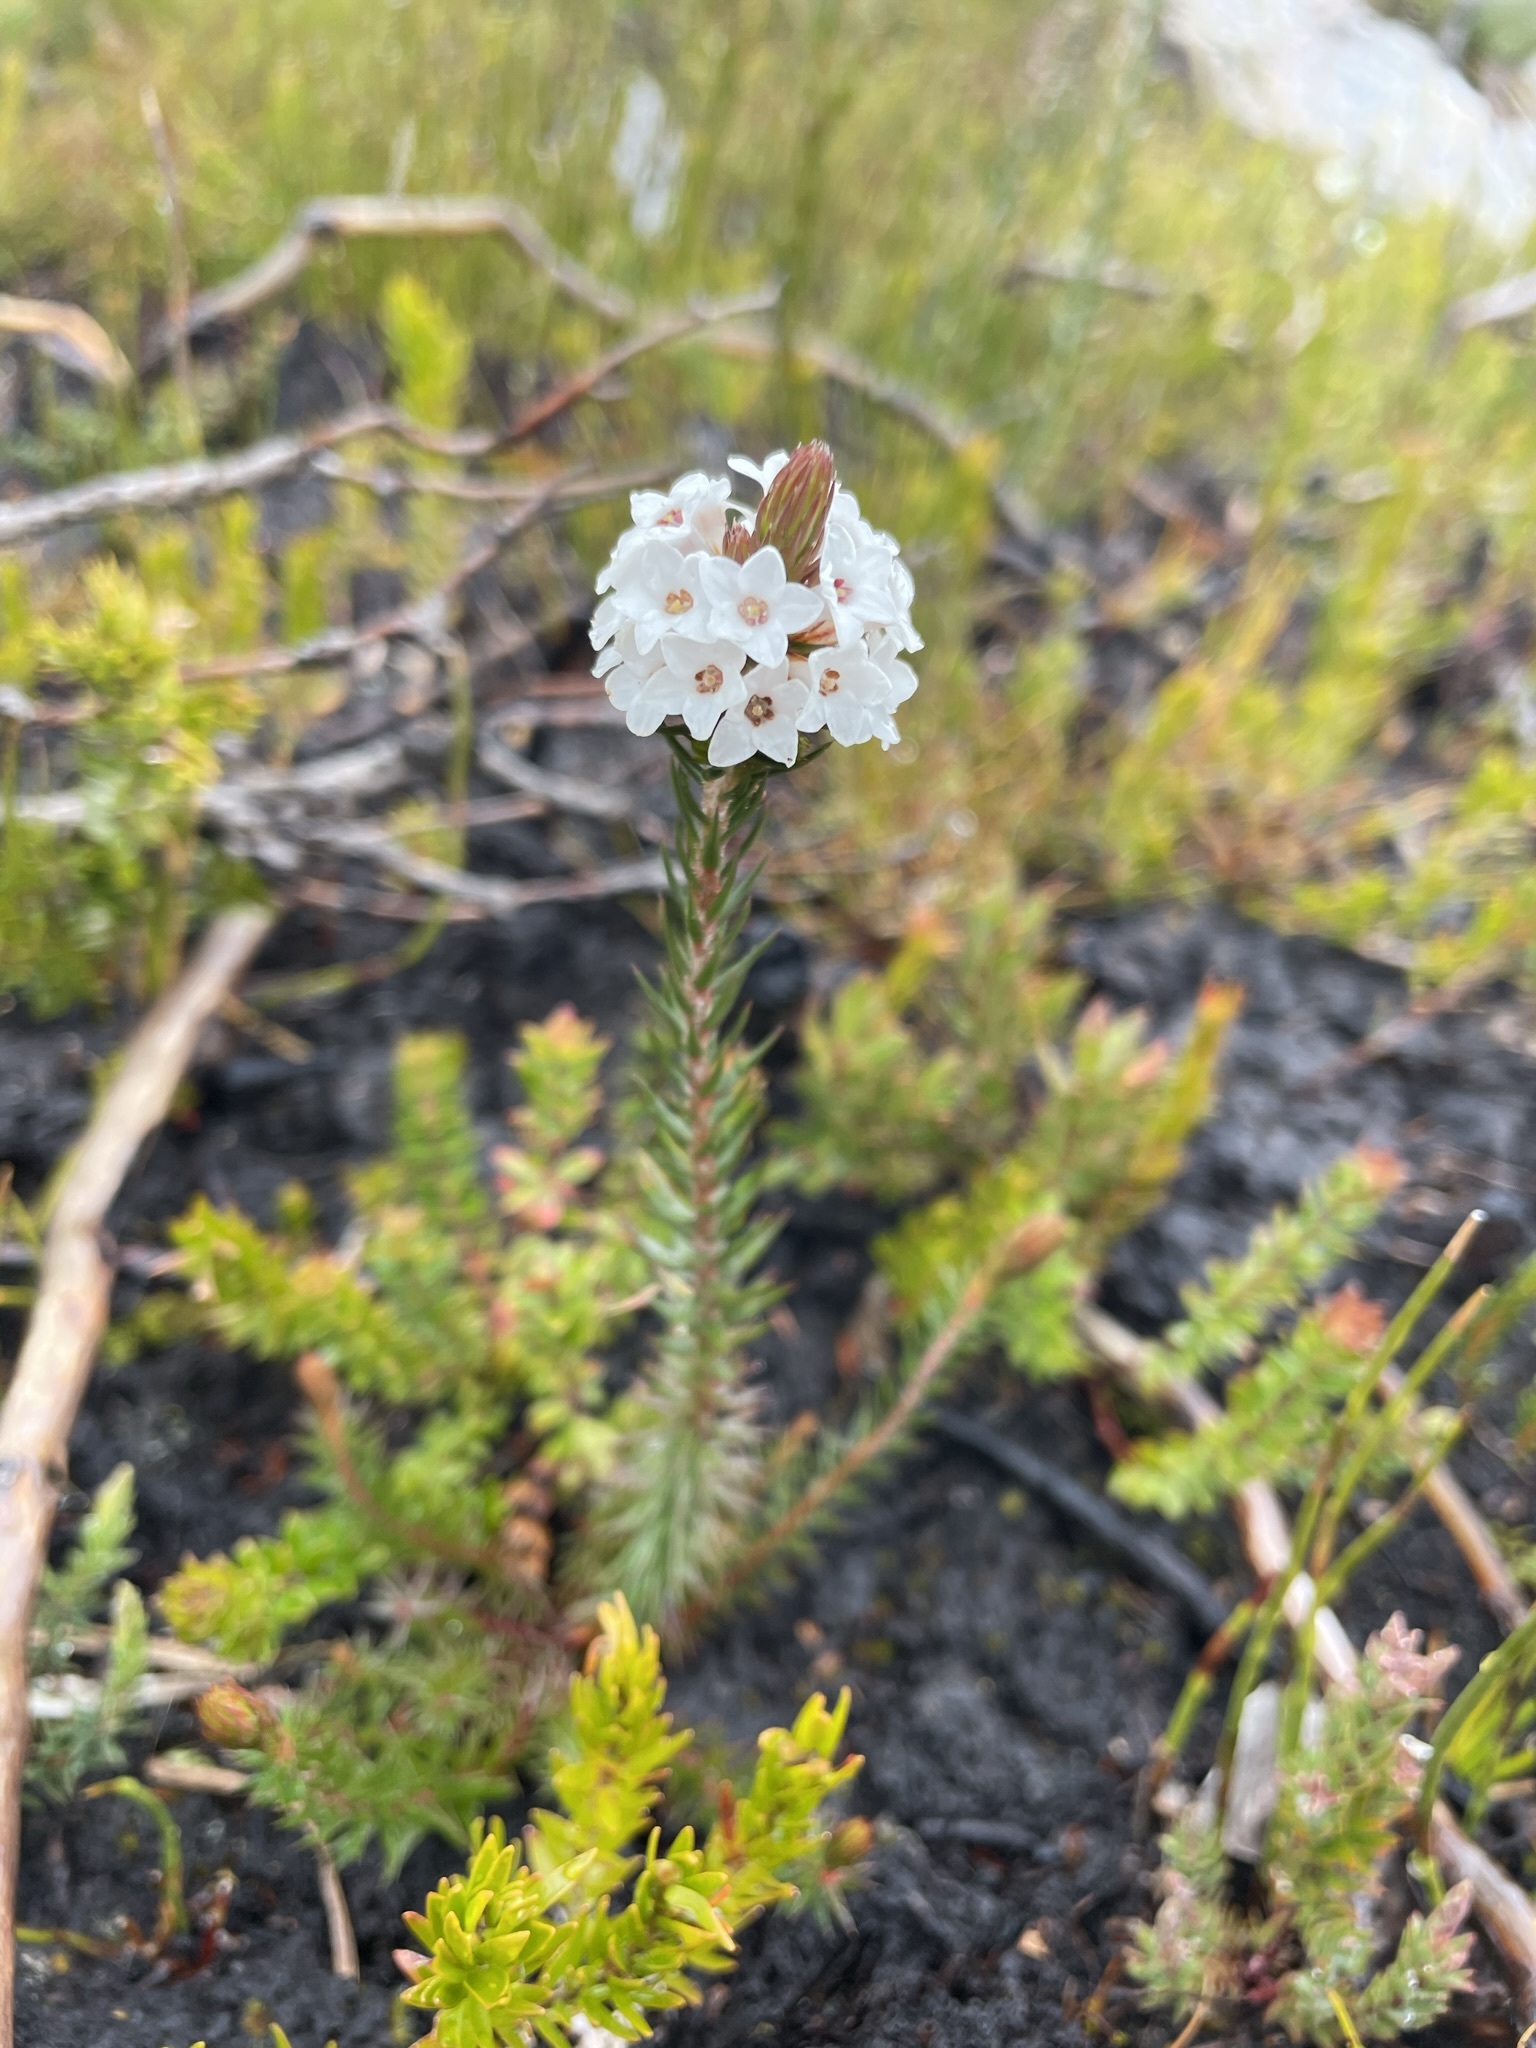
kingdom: Plantae
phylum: Tracheophyta
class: Magnoliopsida
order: Ericales
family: Ericaceae
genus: Epacris
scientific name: Epacris lanuginosa
